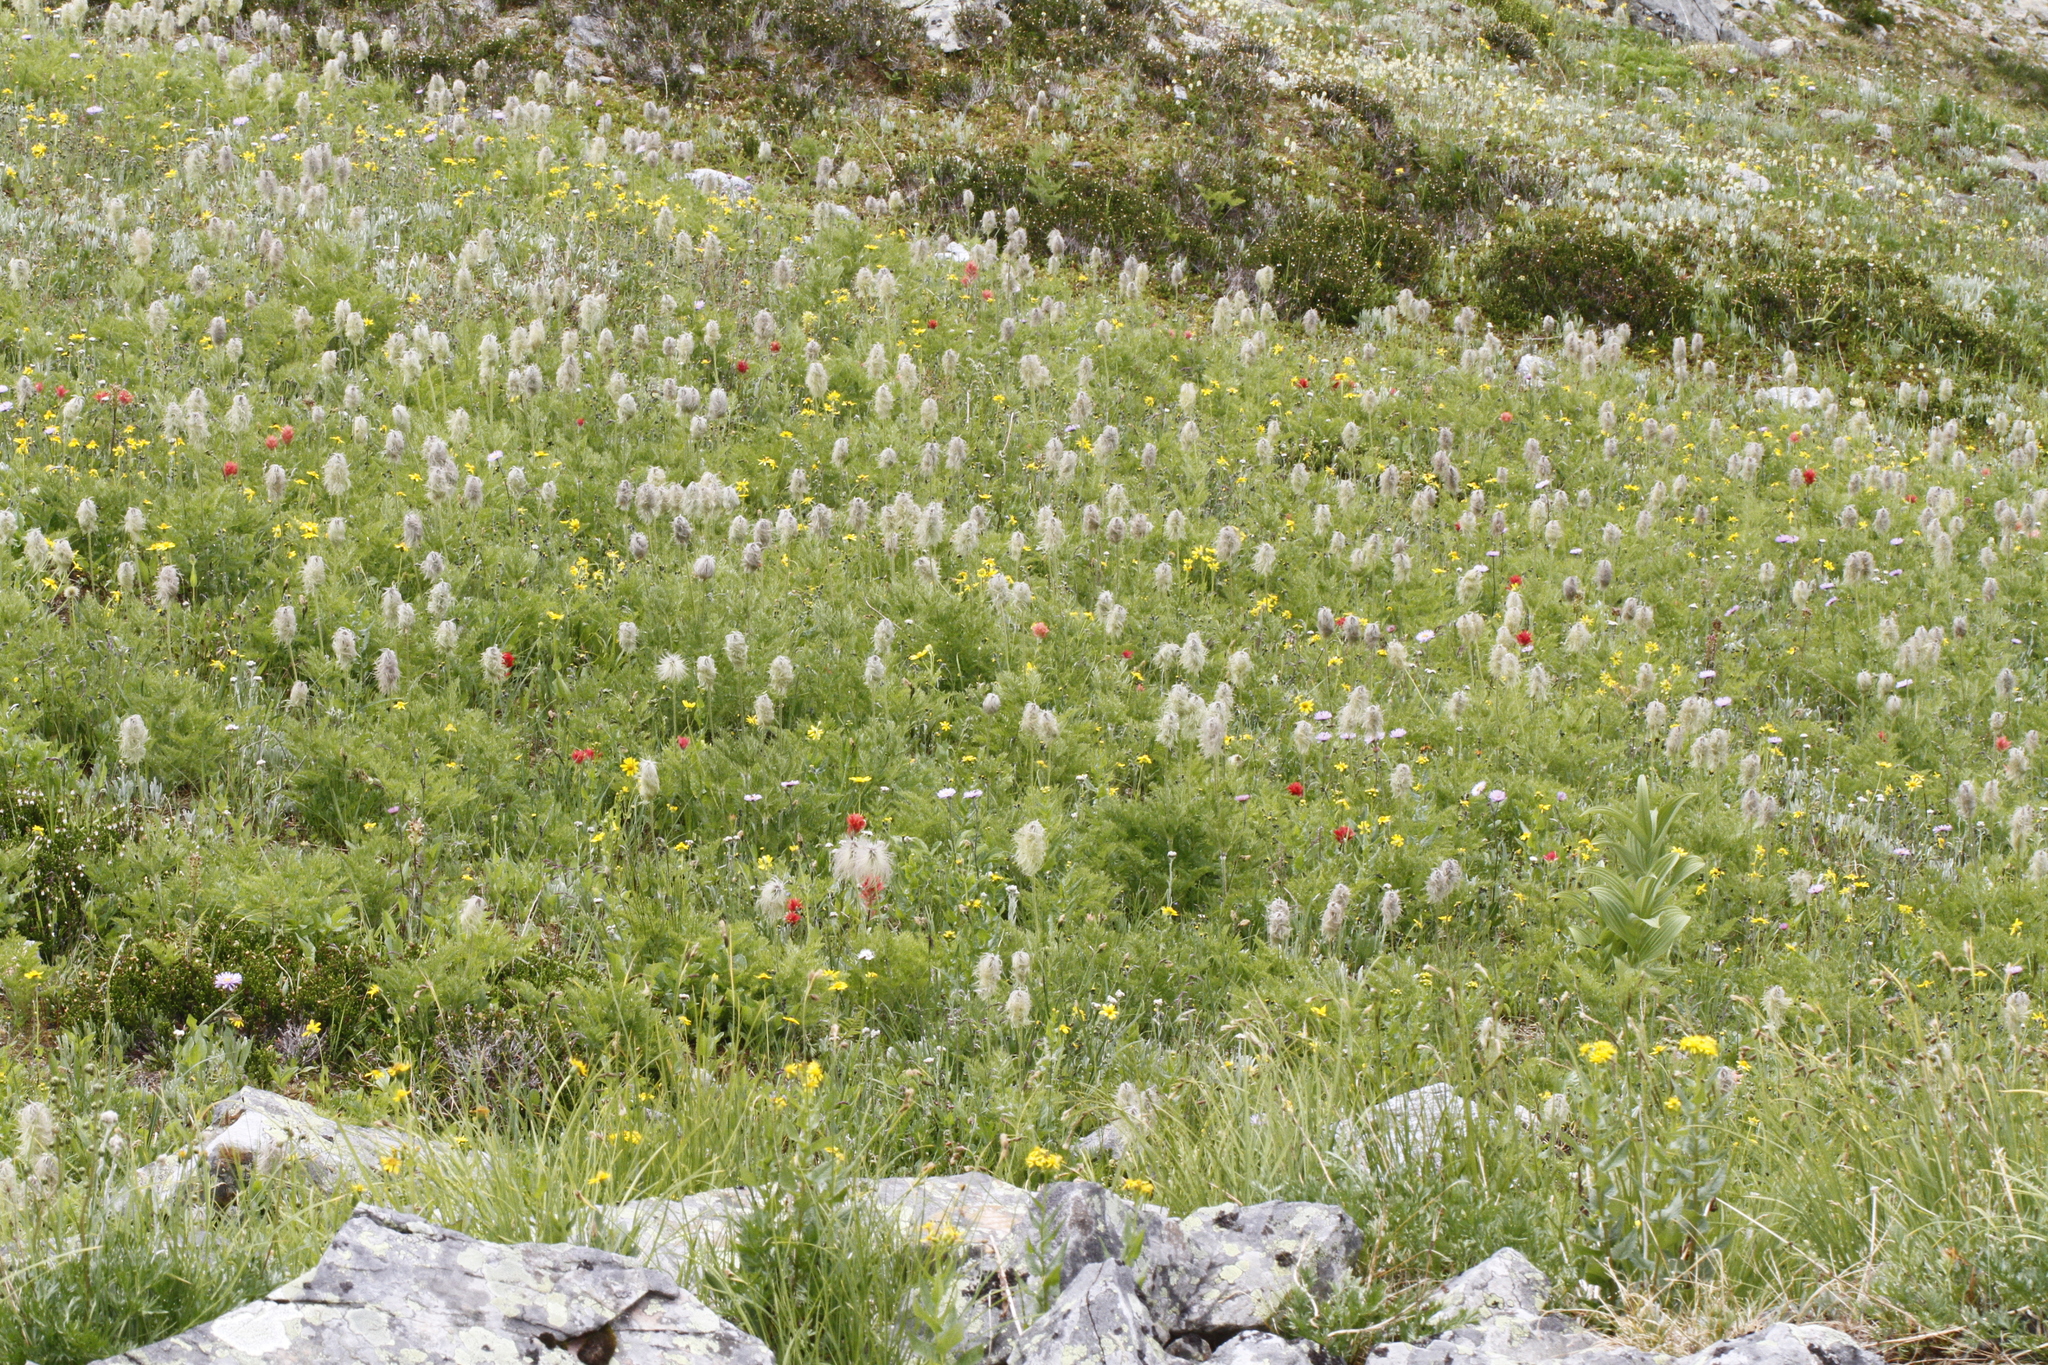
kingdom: Plantae
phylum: Tracheophyta
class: Magnoliopsida
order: Ranunculales
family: Ranunculaceae
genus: Pulsatilla
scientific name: Pulsatilla occidentalis
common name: Mountain pasqueflower
